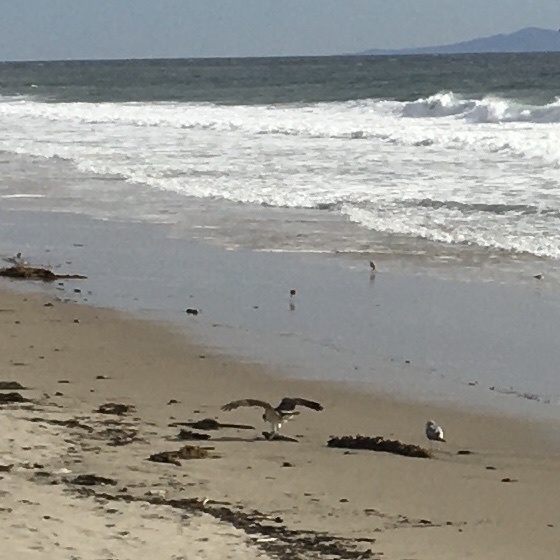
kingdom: Animalia
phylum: Chordata
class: Aves
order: Accipitriformes
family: Pandionidae
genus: Pandion
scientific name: Pandion haliaetus
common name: Osprey
